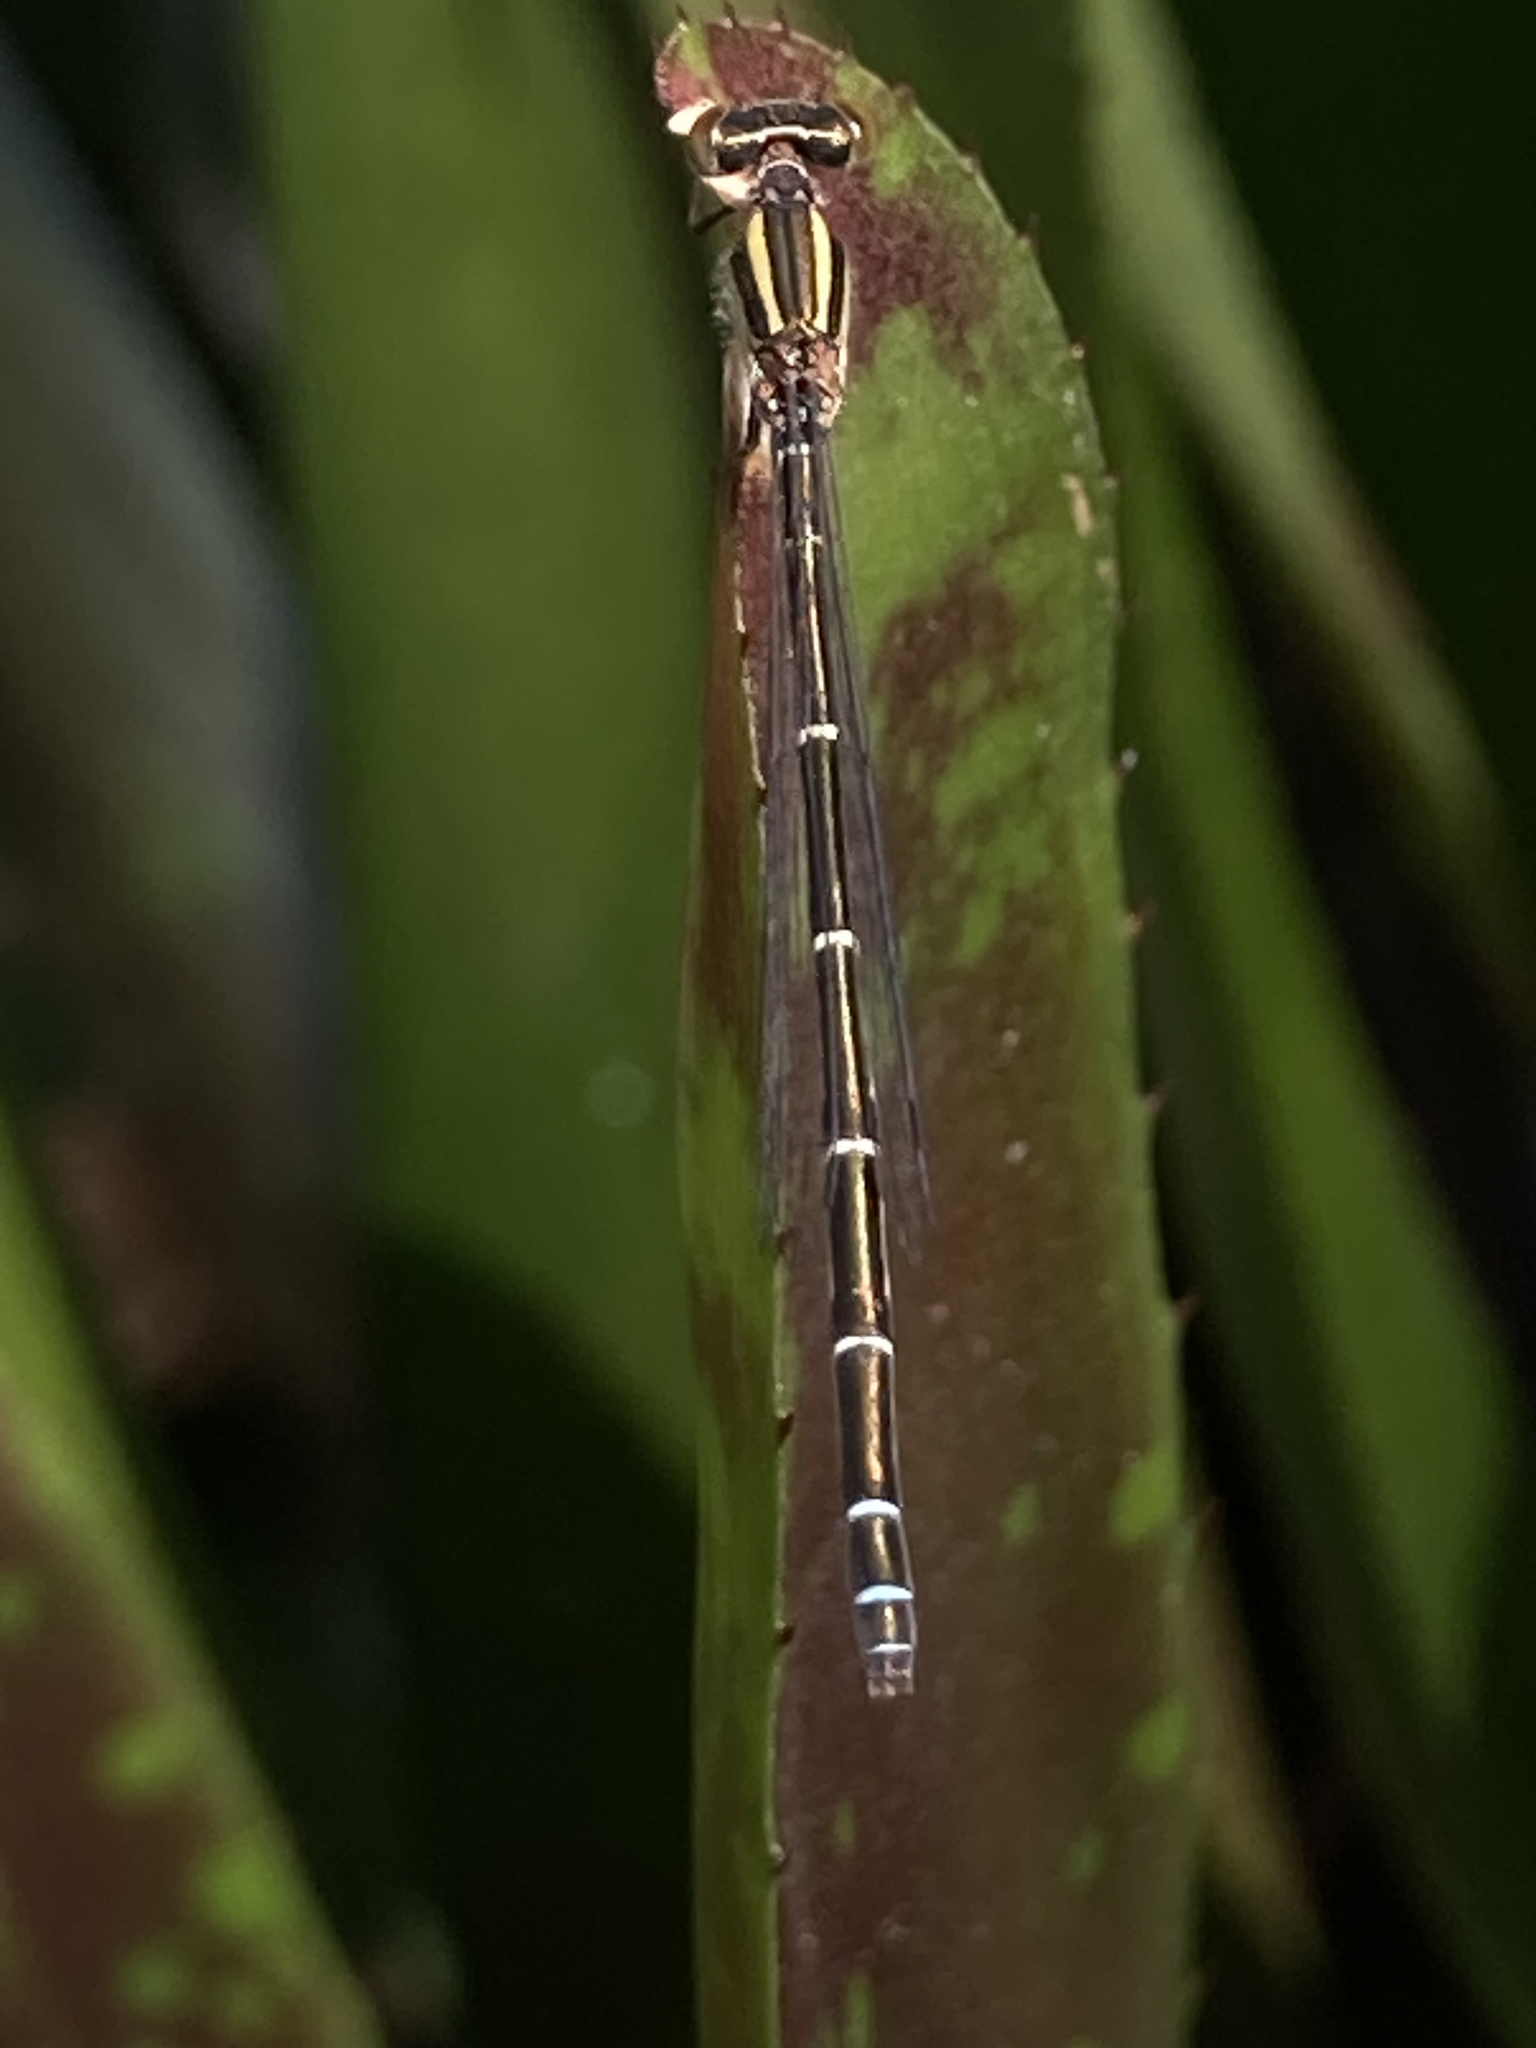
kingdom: Animalia
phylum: Arthropoda
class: Insecta
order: Odonata
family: Coenagrionidae
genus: Austroagrion
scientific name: Austroagrion watsoni
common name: Eastern billabongfly
